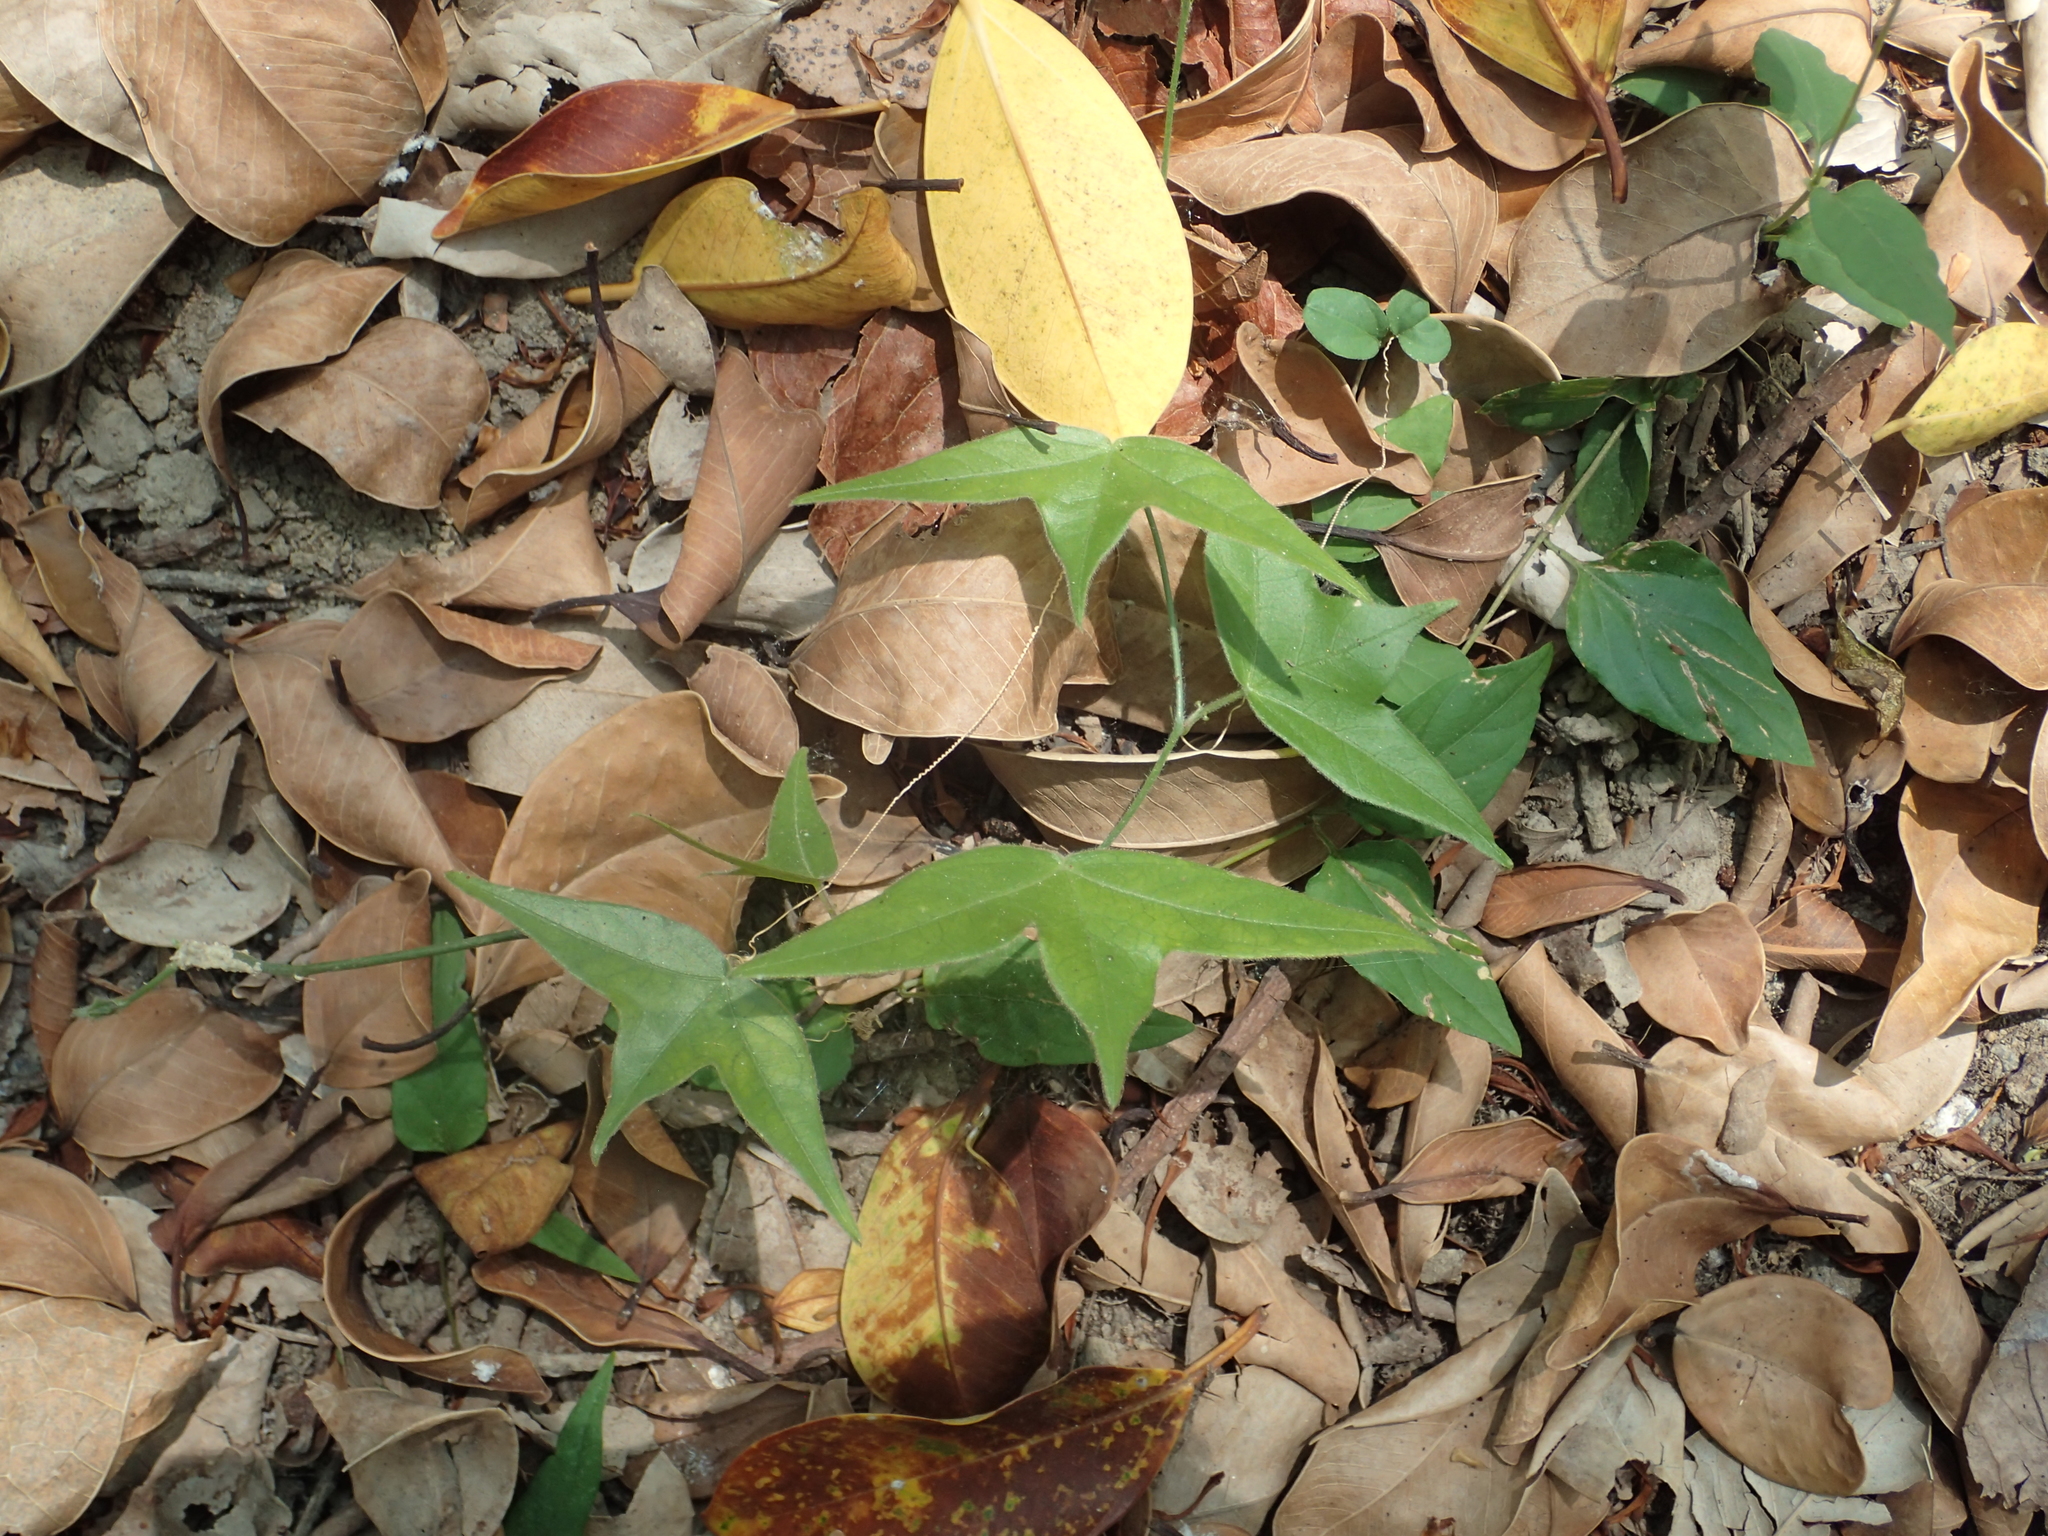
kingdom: Plantae
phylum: Tracheophyta
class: Magnoliopsida
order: Malpighiales
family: Passifloraceae
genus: Passiflora
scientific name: Passiflora suberosa
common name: Wild passionfruit
